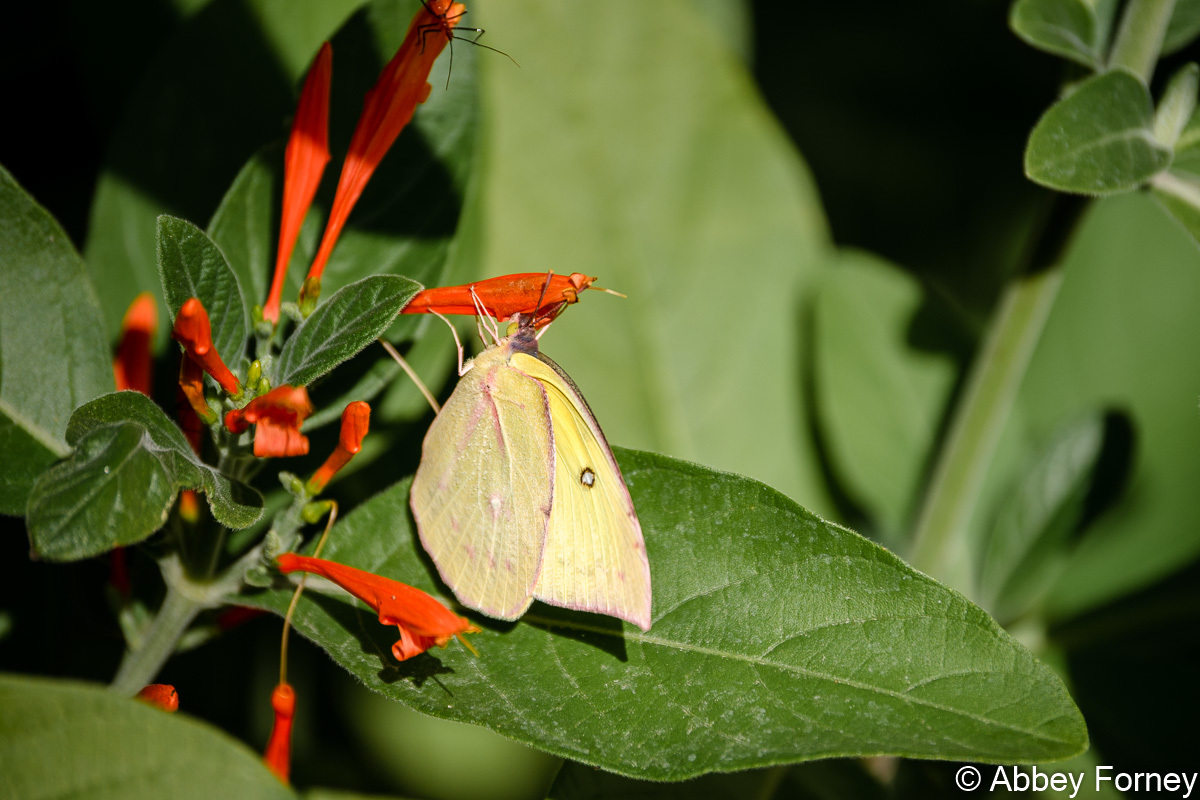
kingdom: Animalia
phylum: Arthropoda
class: Insecta
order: Lepidoptera
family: Pieridae
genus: Zerene
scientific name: Zerene cesonia
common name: Southern dogface
